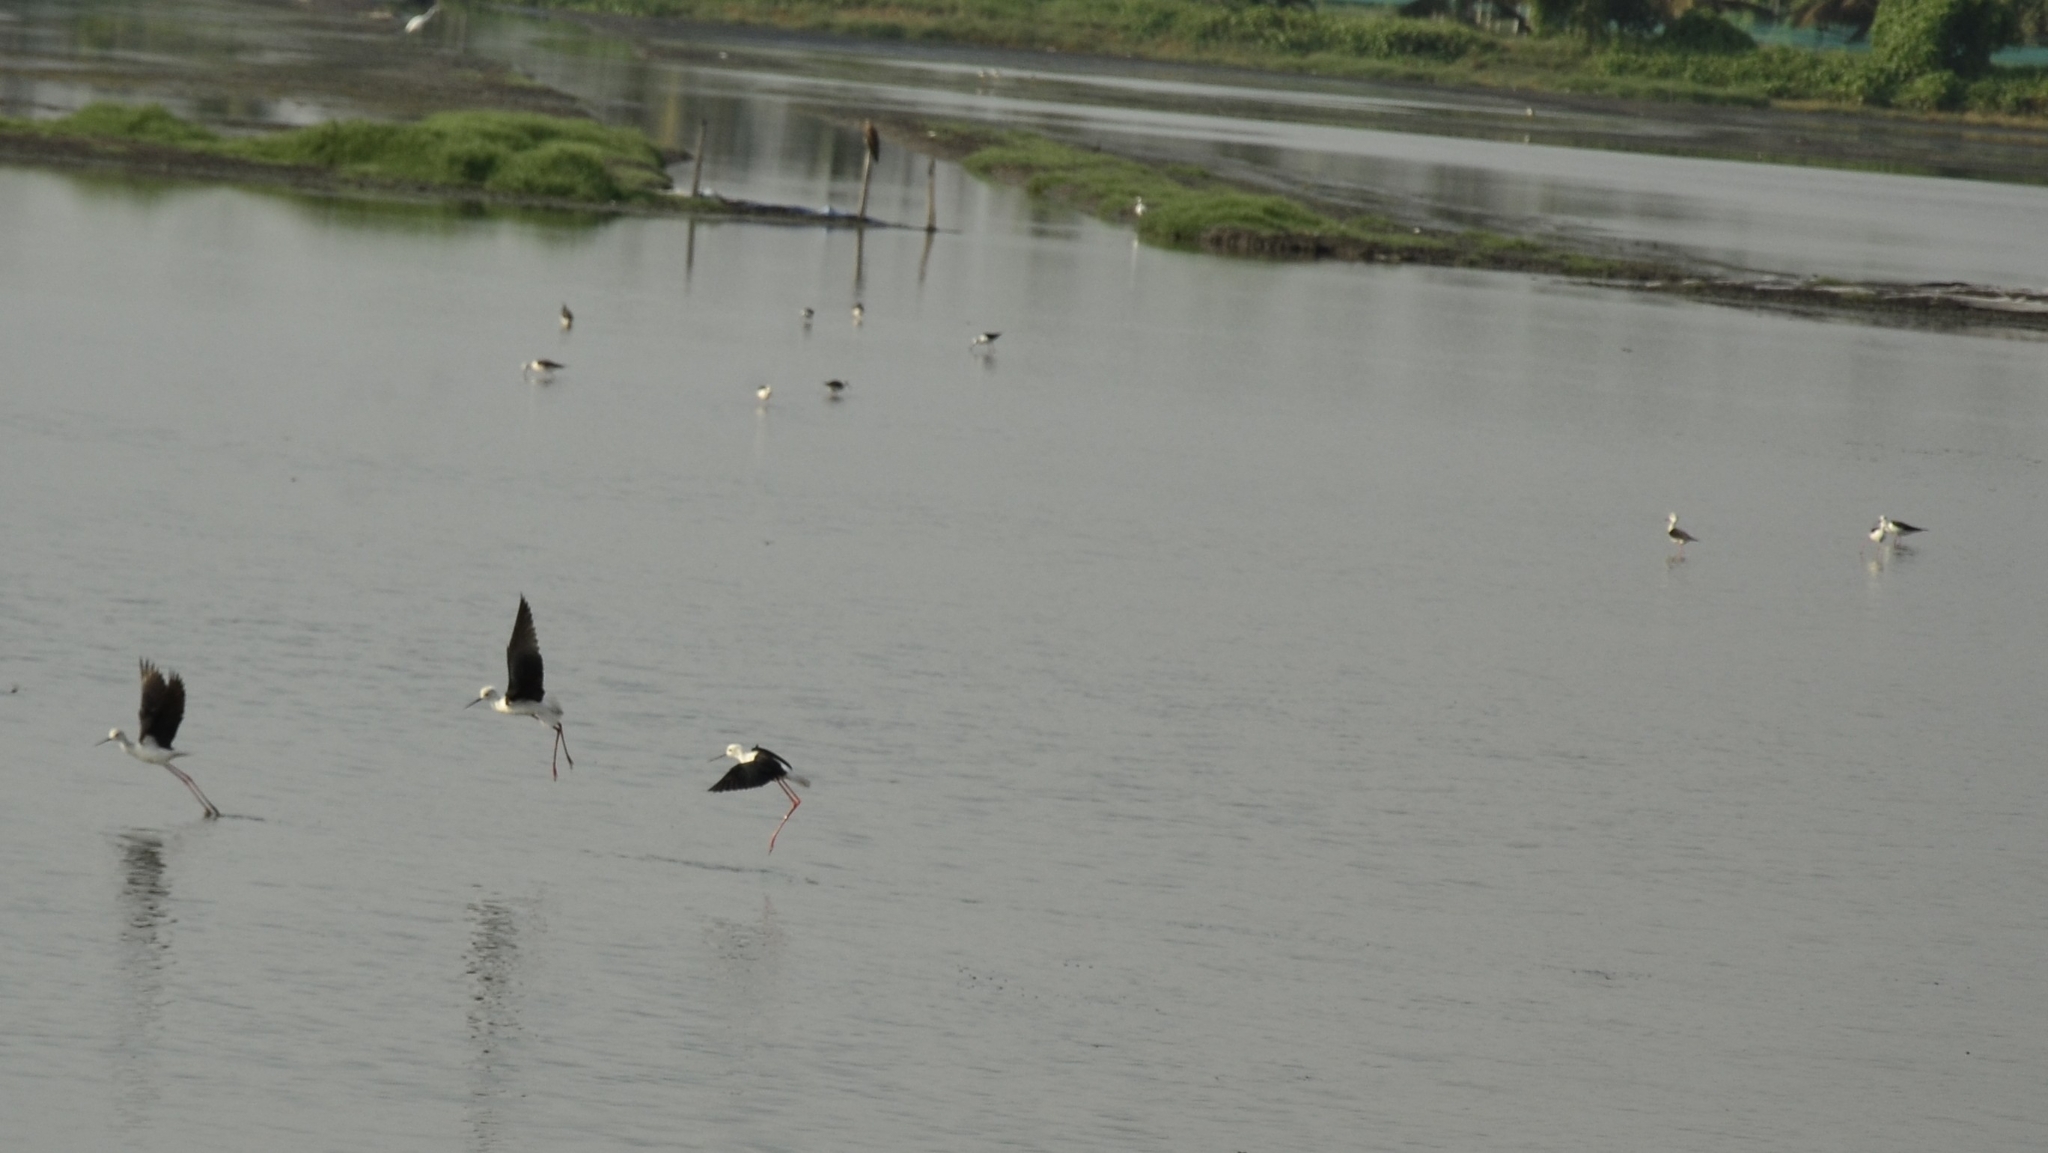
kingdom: Animalia
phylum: Chordata
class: Aves
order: Charadriiformes
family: Recurvirostridae
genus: Himantopus
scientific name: Himantopus himantopus
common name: Black-winged stilt
